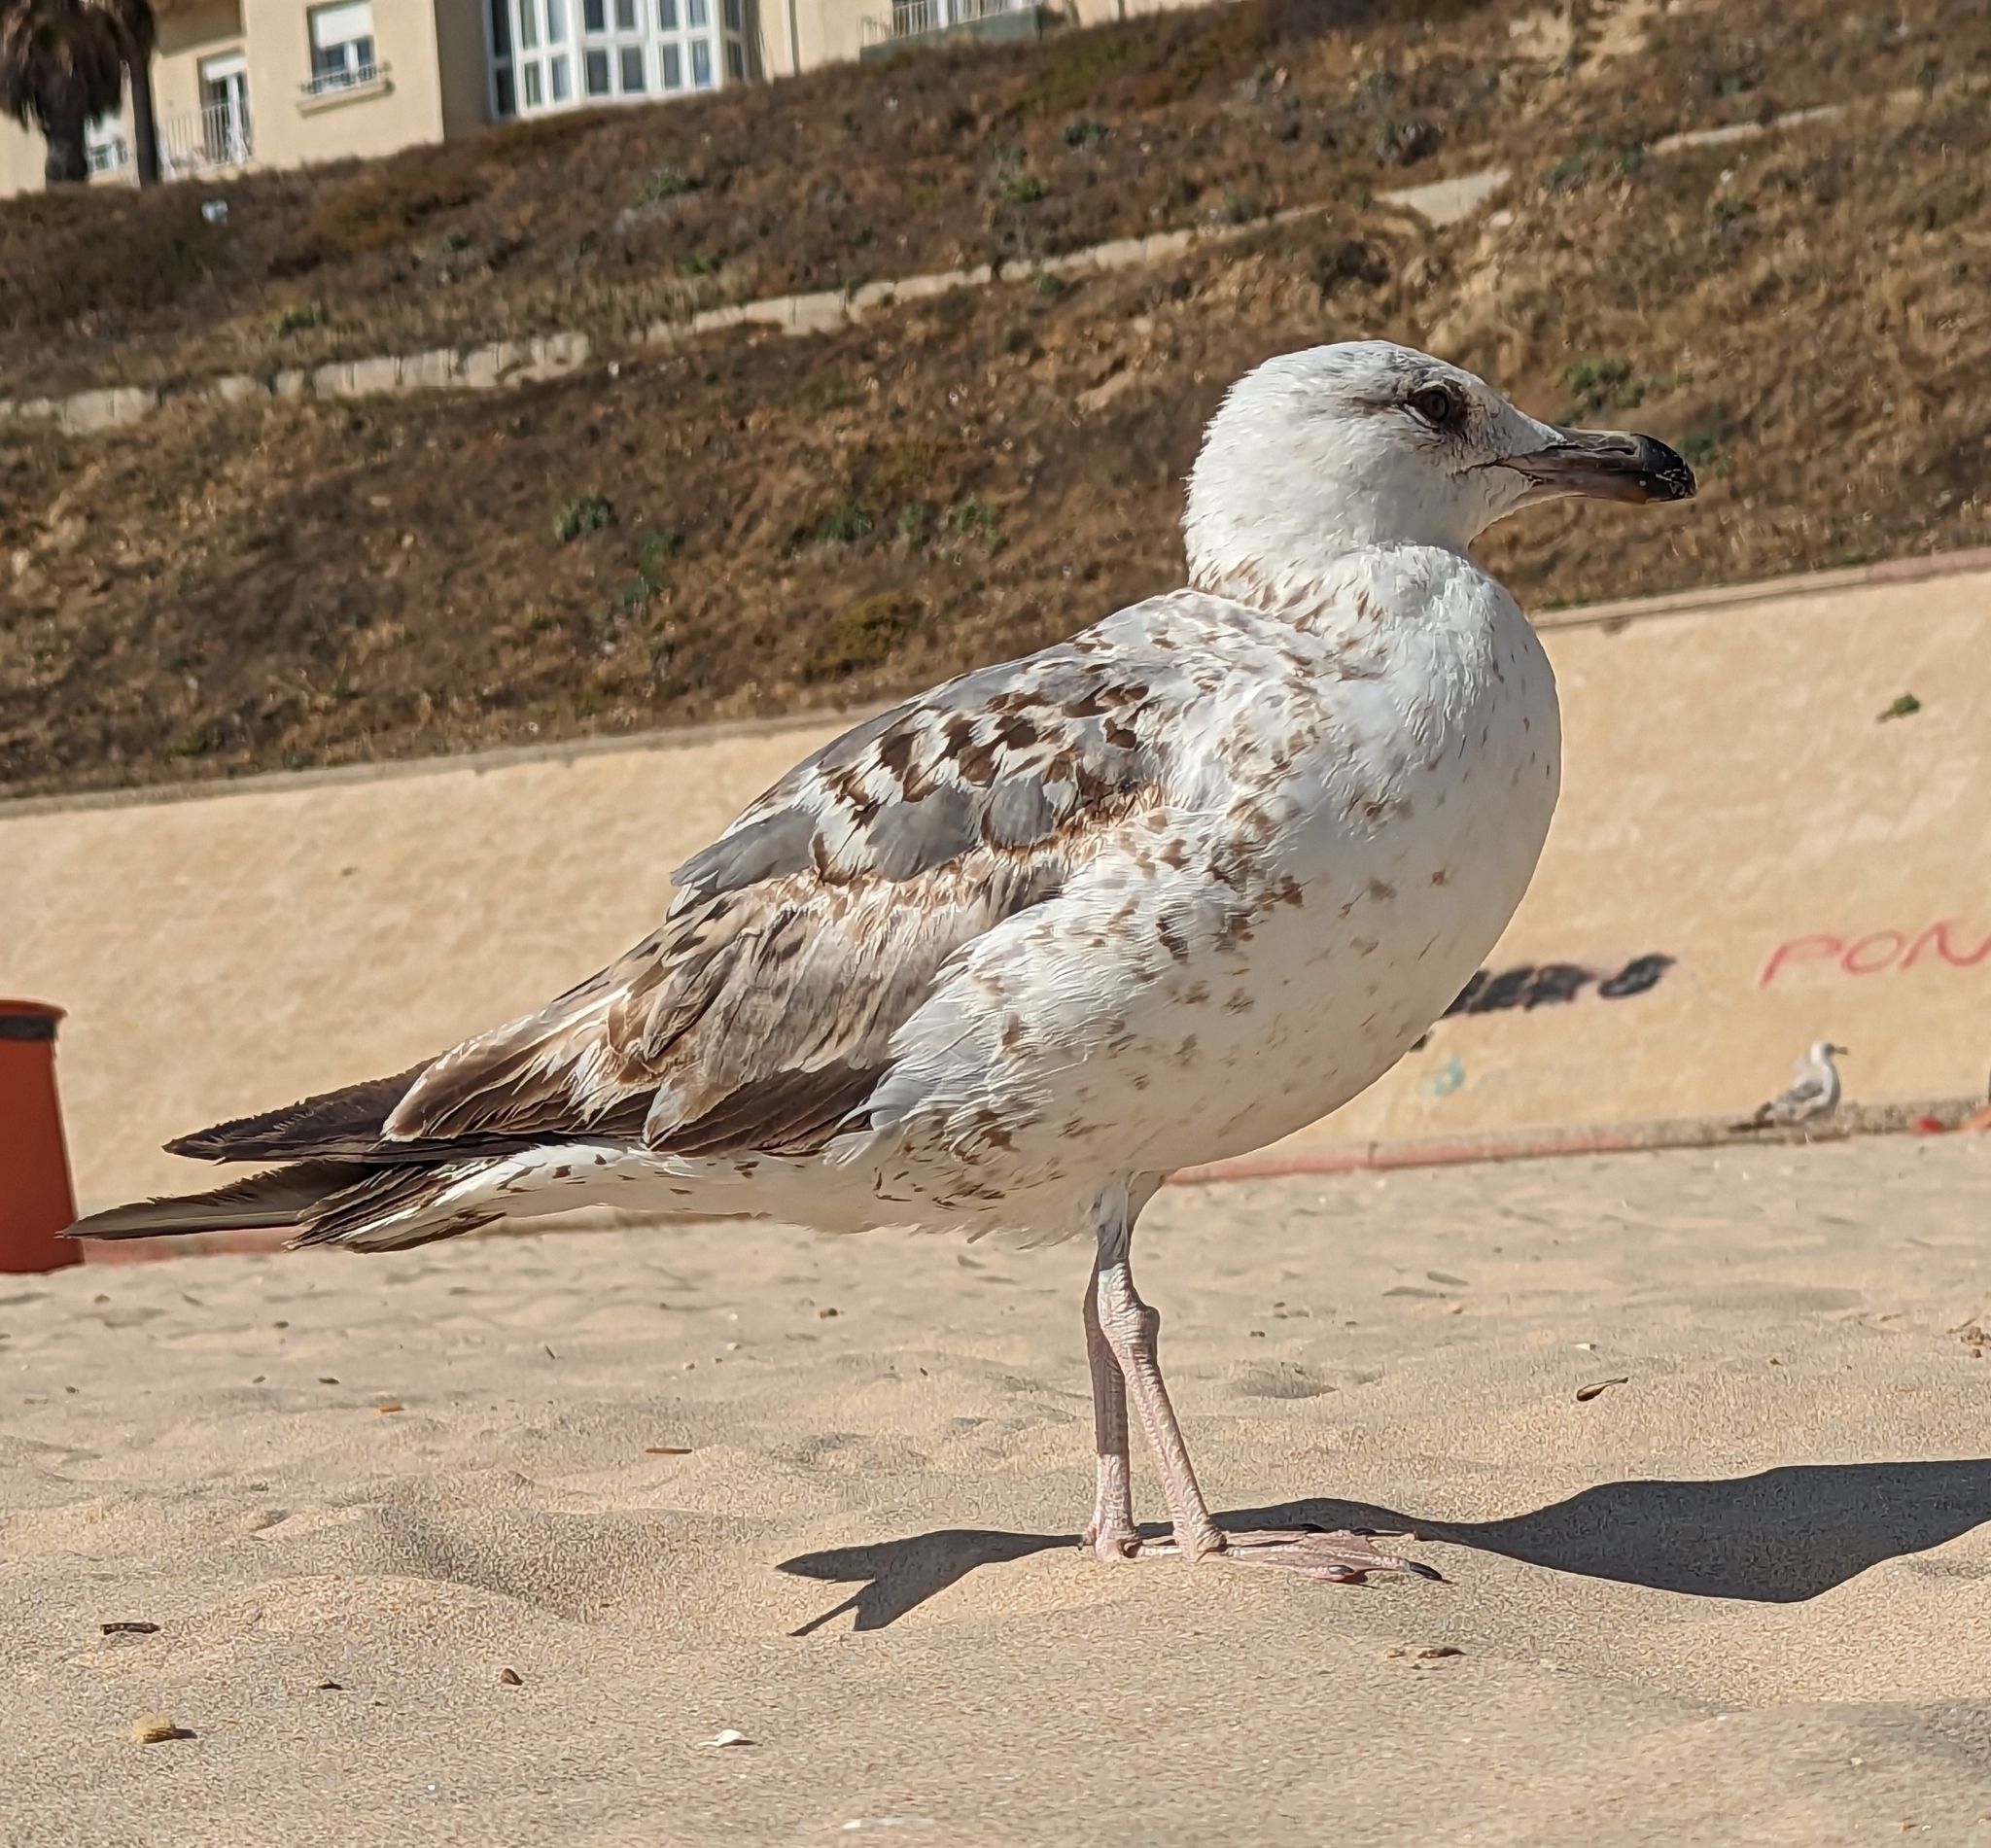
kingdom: Animalia
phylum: Chordata
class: Aves
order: Charadriiformes
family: Laridae
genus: Larus
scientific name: Larus michahellis
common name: Yellow-legged gull
